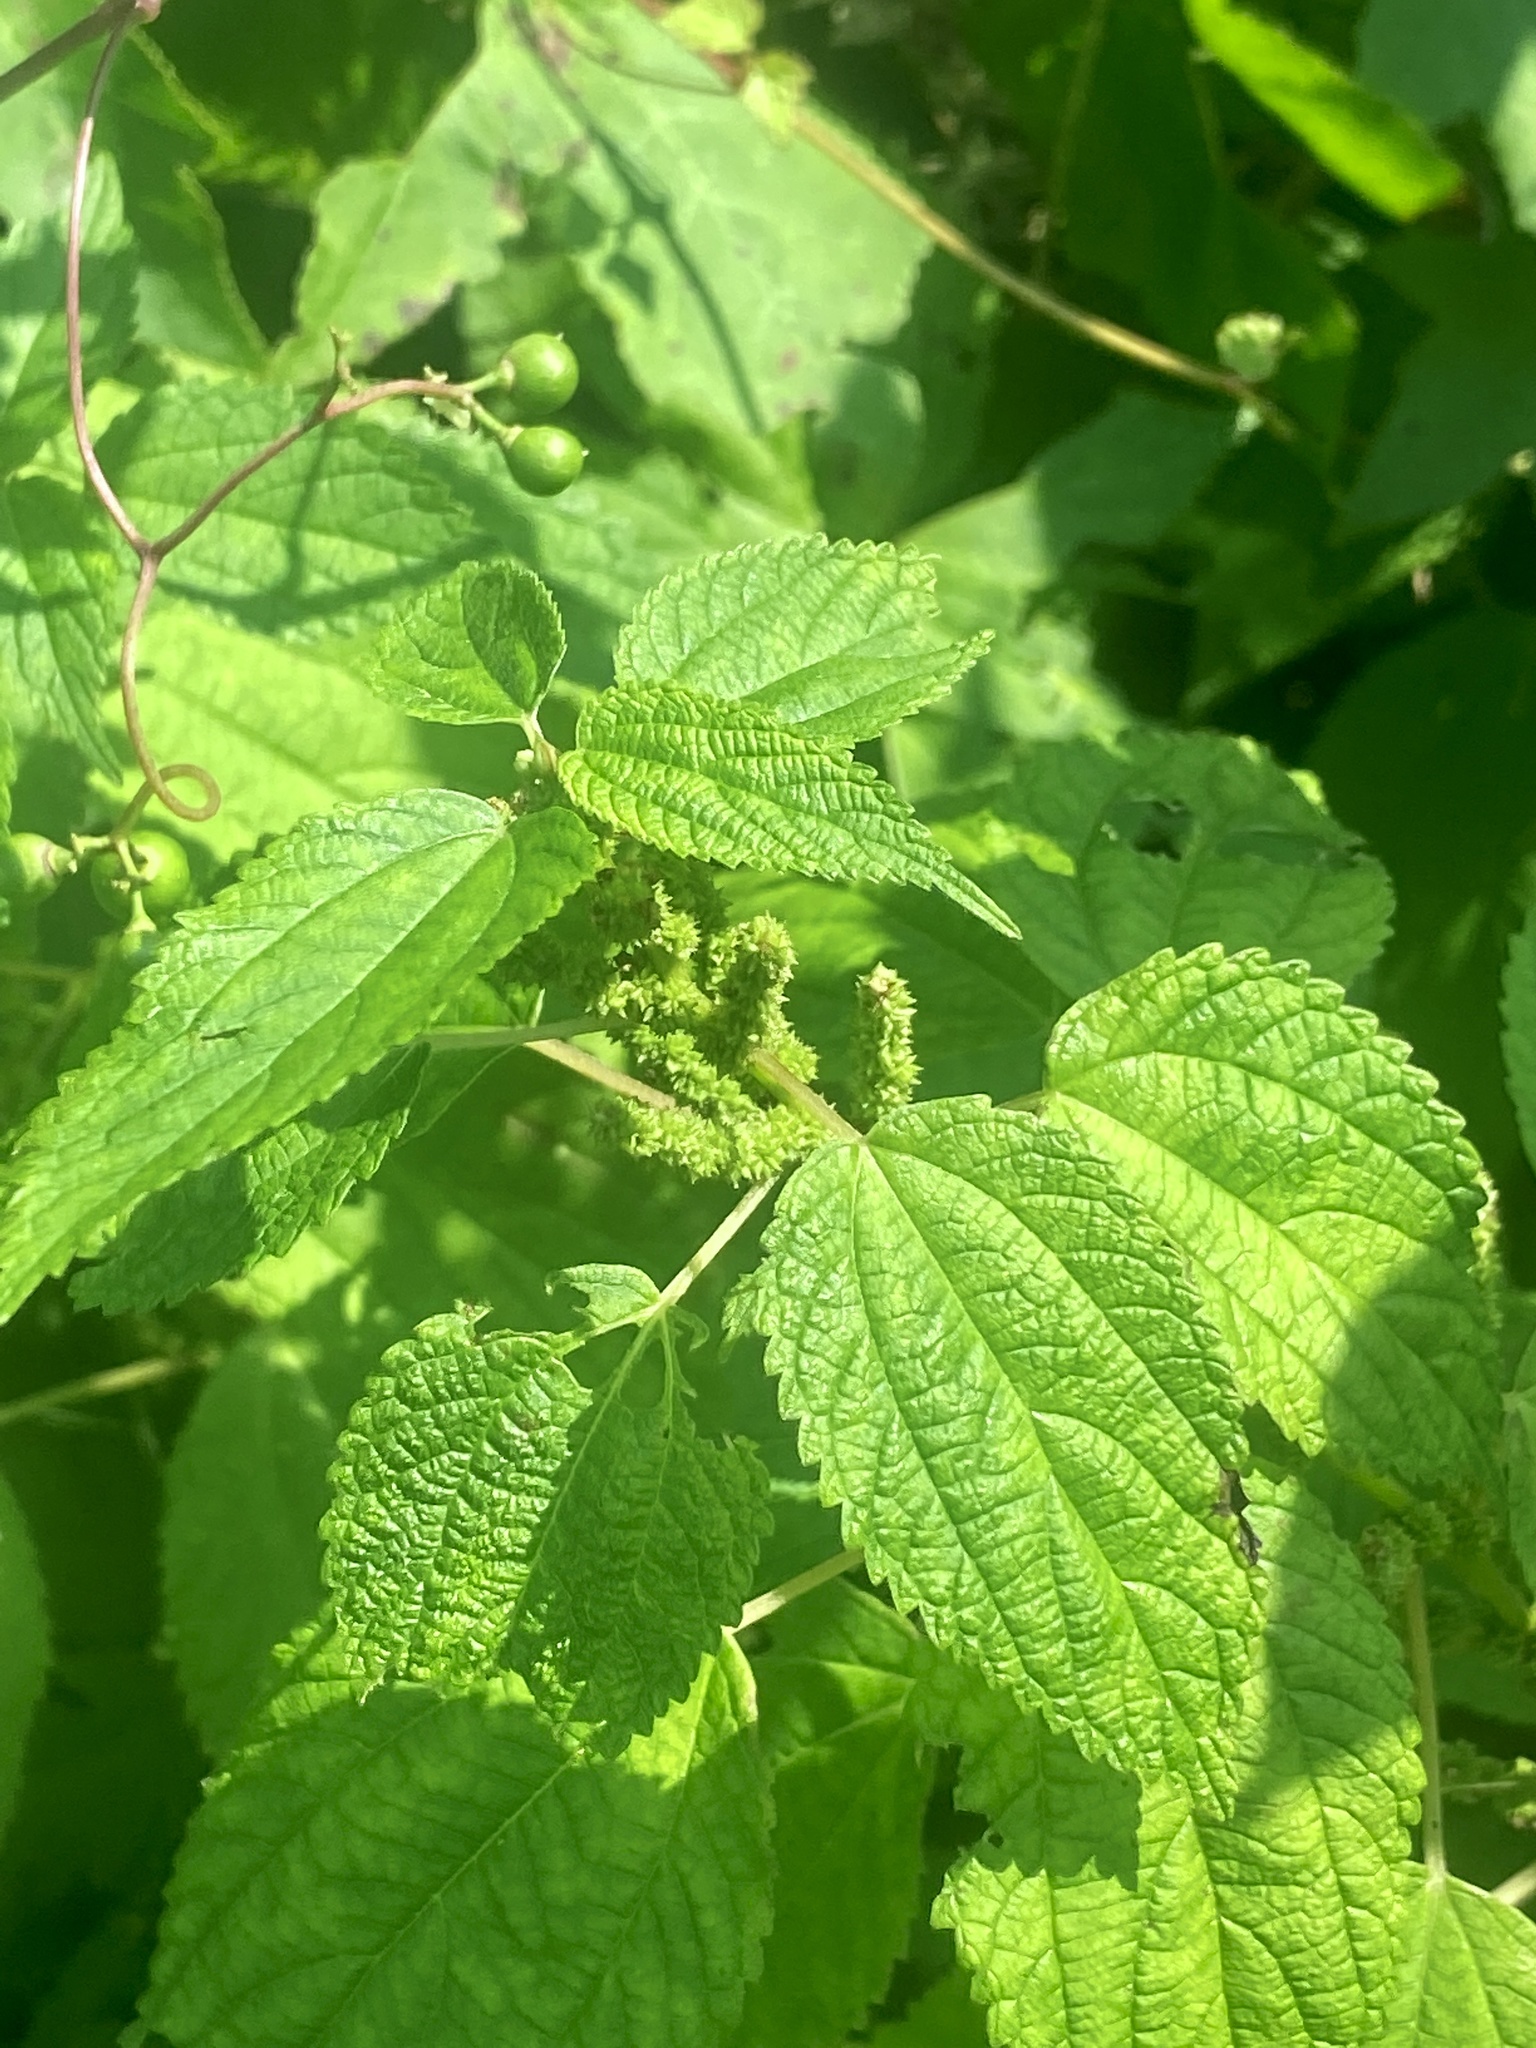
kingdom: Plantae
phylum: Tracheophyta
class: Magnoliopsida
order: Rosales
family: Urticaceae
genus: Boehmeria
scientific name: Boehmeria cylindrica
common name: Bog-hemp
